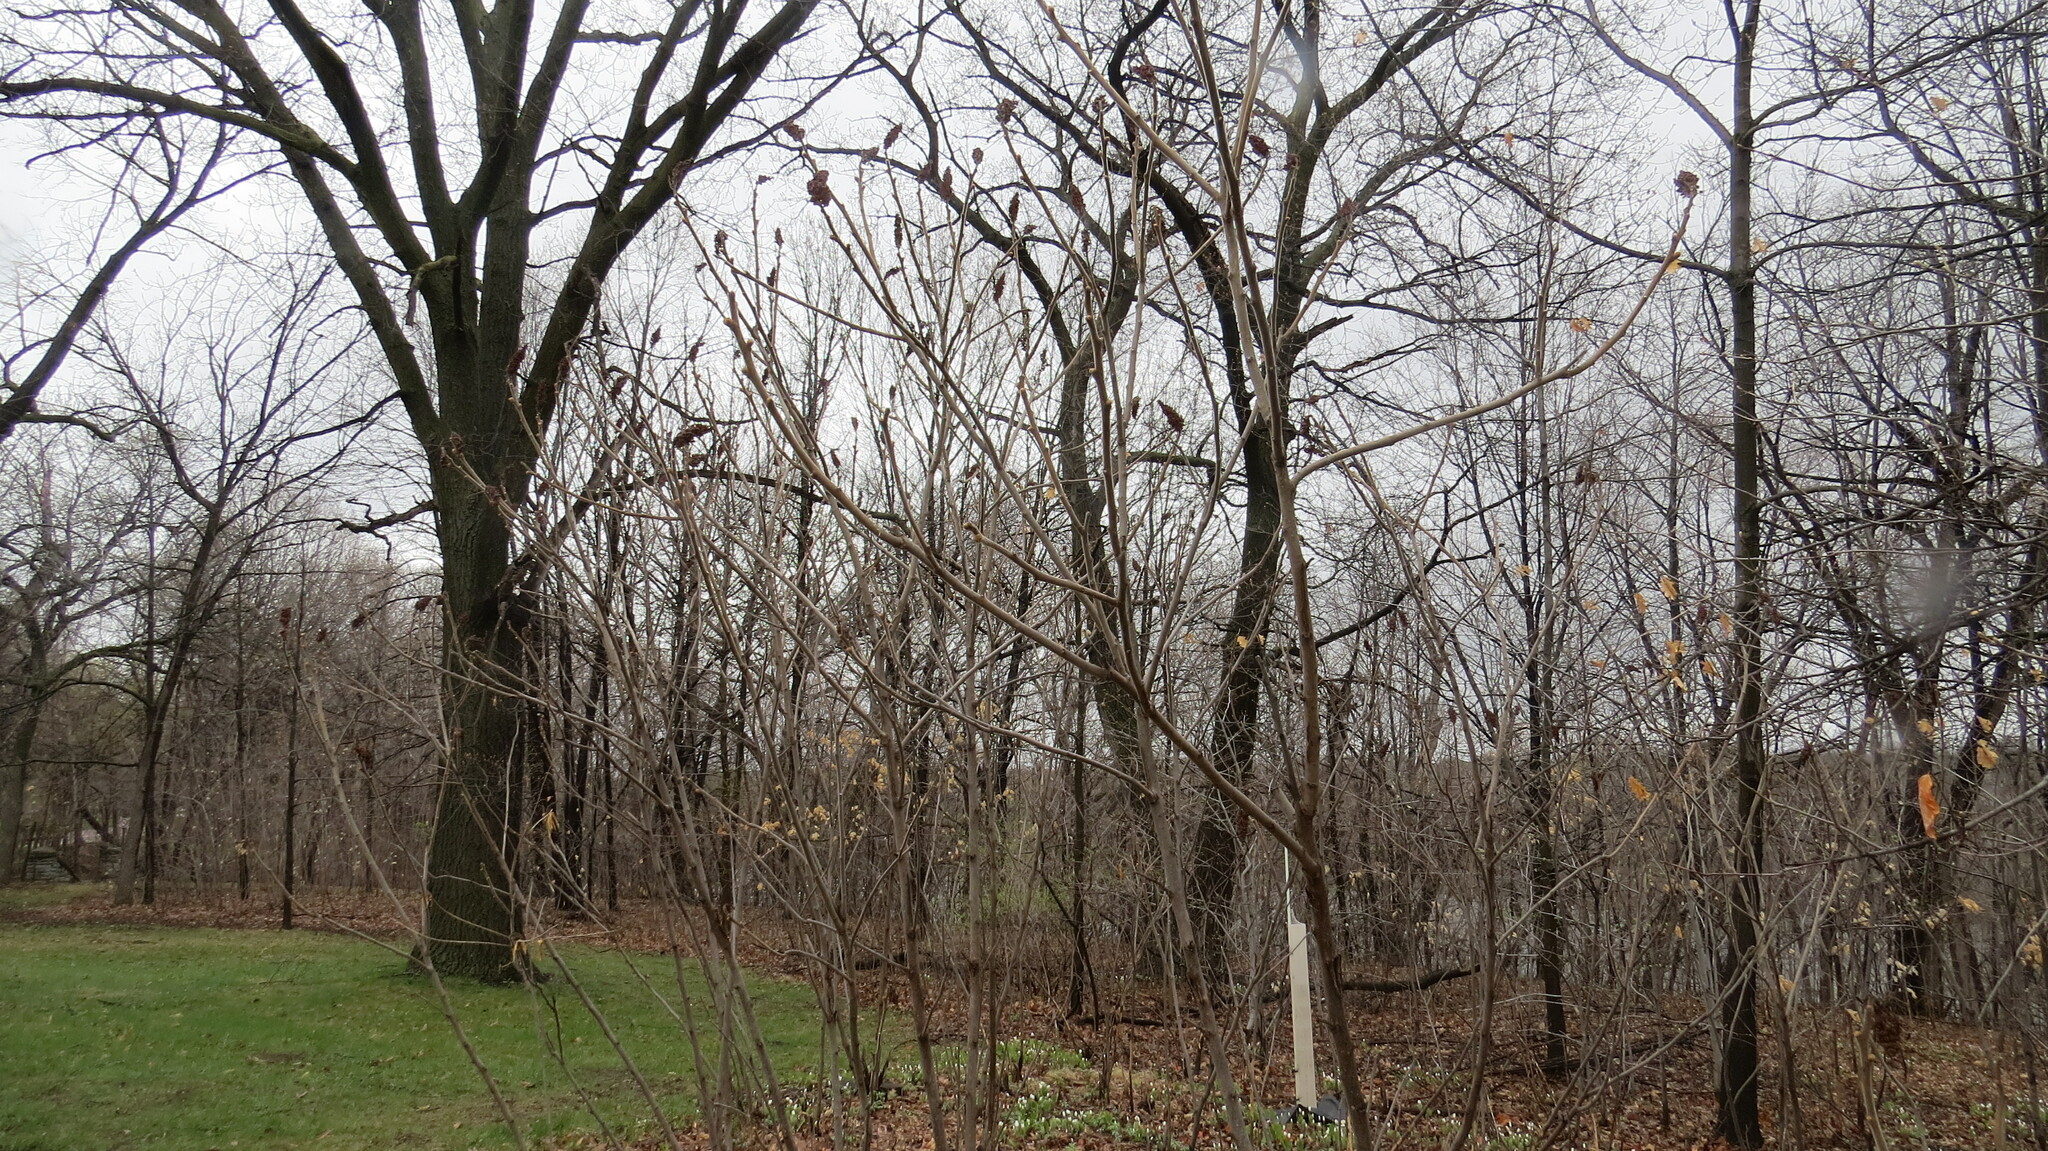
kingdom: Plantae
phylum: Tracheophyta
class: Magnoliopsida
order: Sapindales
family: Anacardiaceae
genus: Rhus
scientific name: Rhus typhina
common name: Staghorn sumac
